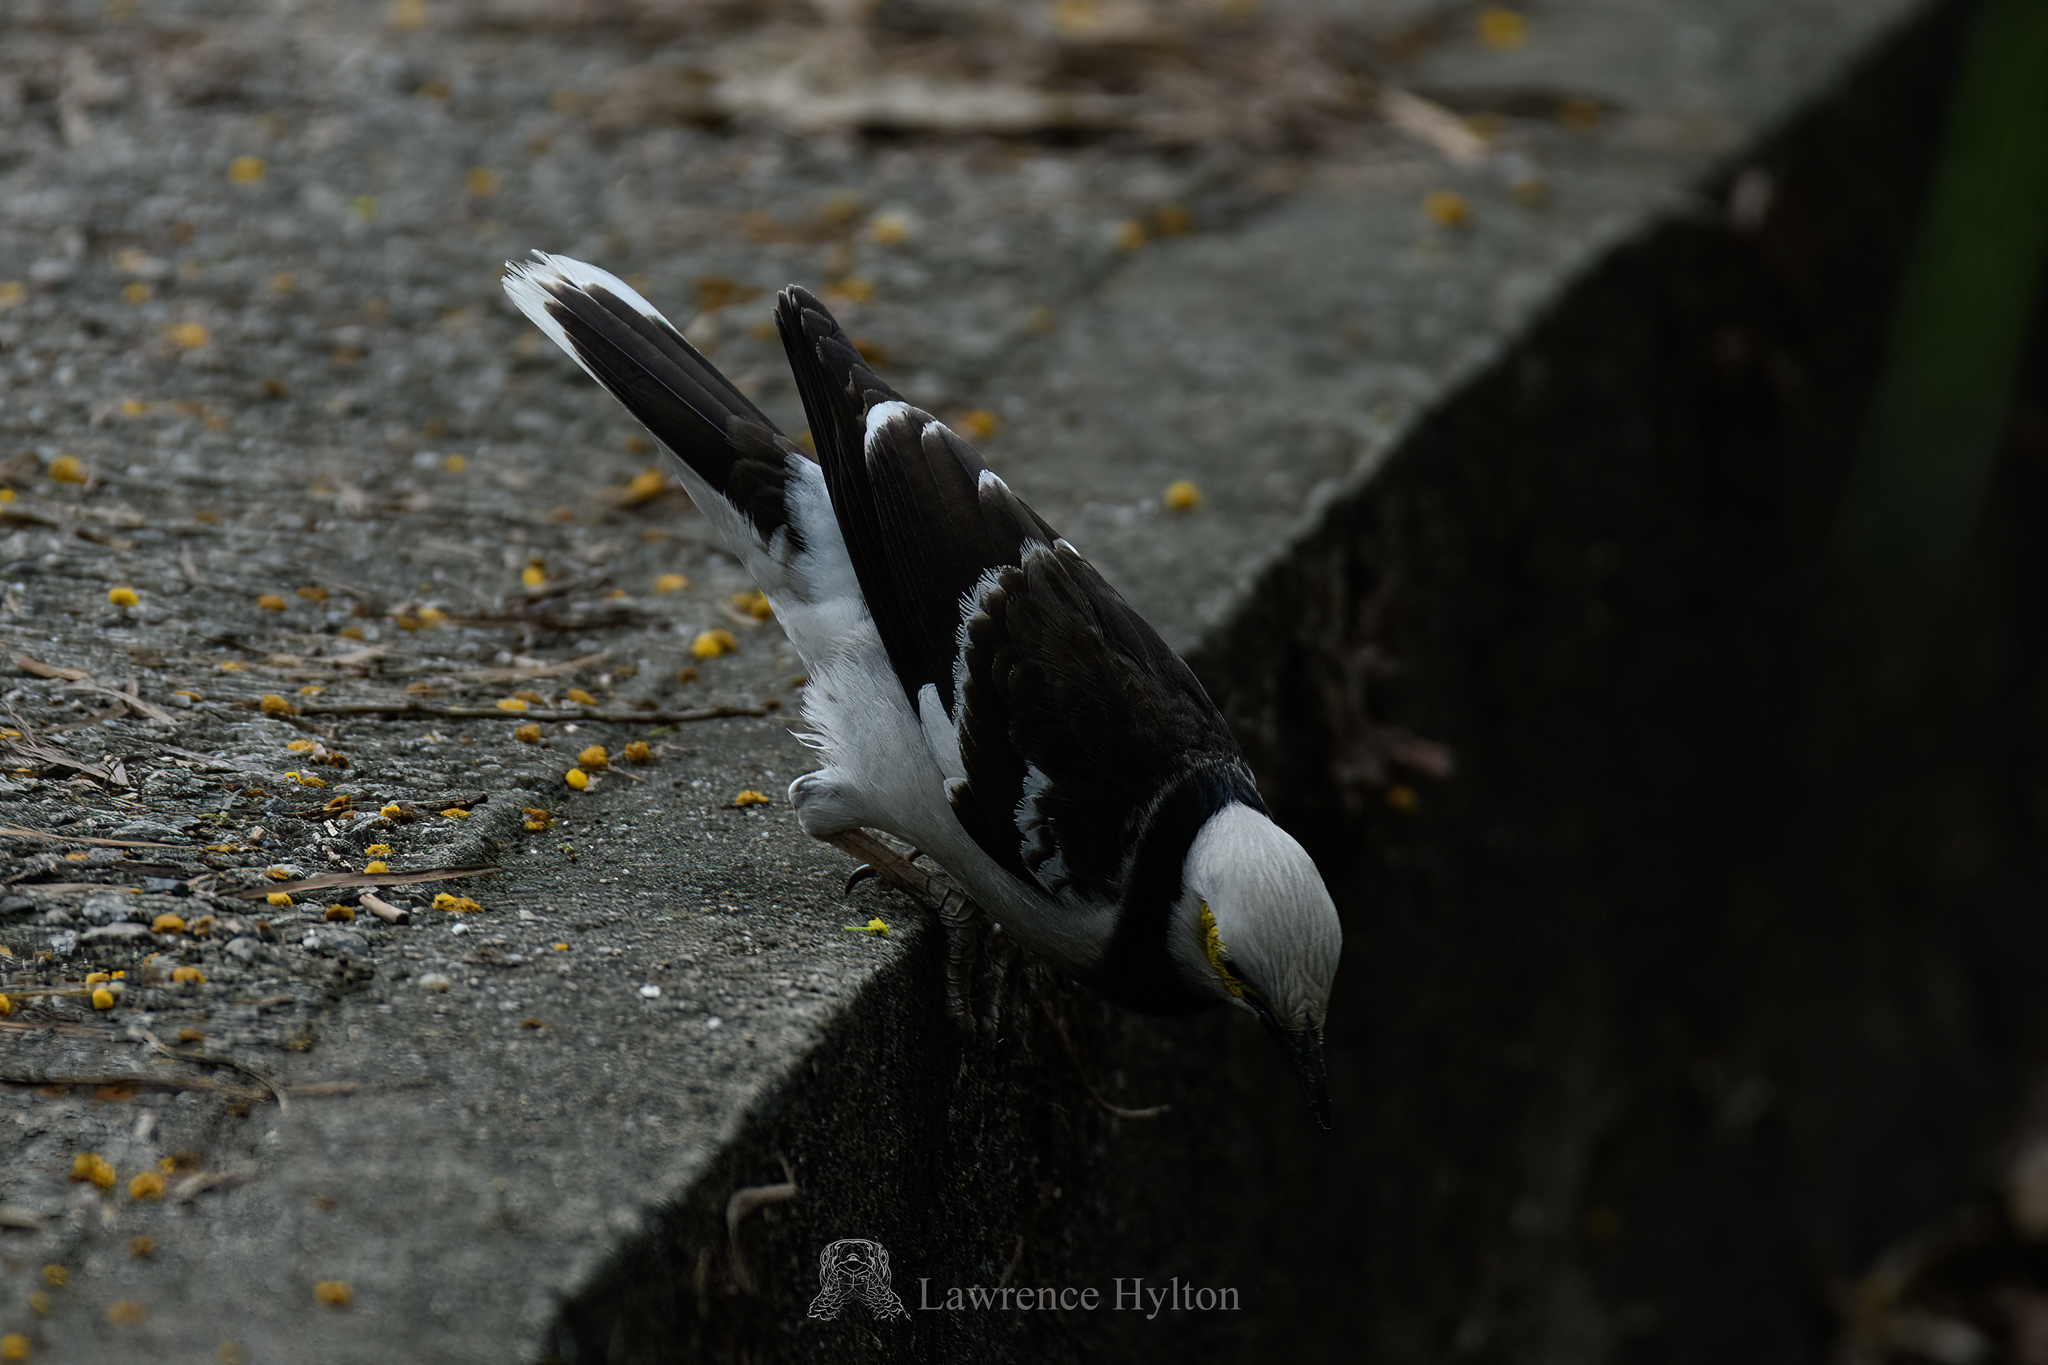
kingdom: Animalia
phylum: Chordata
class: Aves
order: Passeriformes
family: Sturnidae
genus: Gracupica
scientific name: Gracupica nigricollis
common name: Black-collared starling
